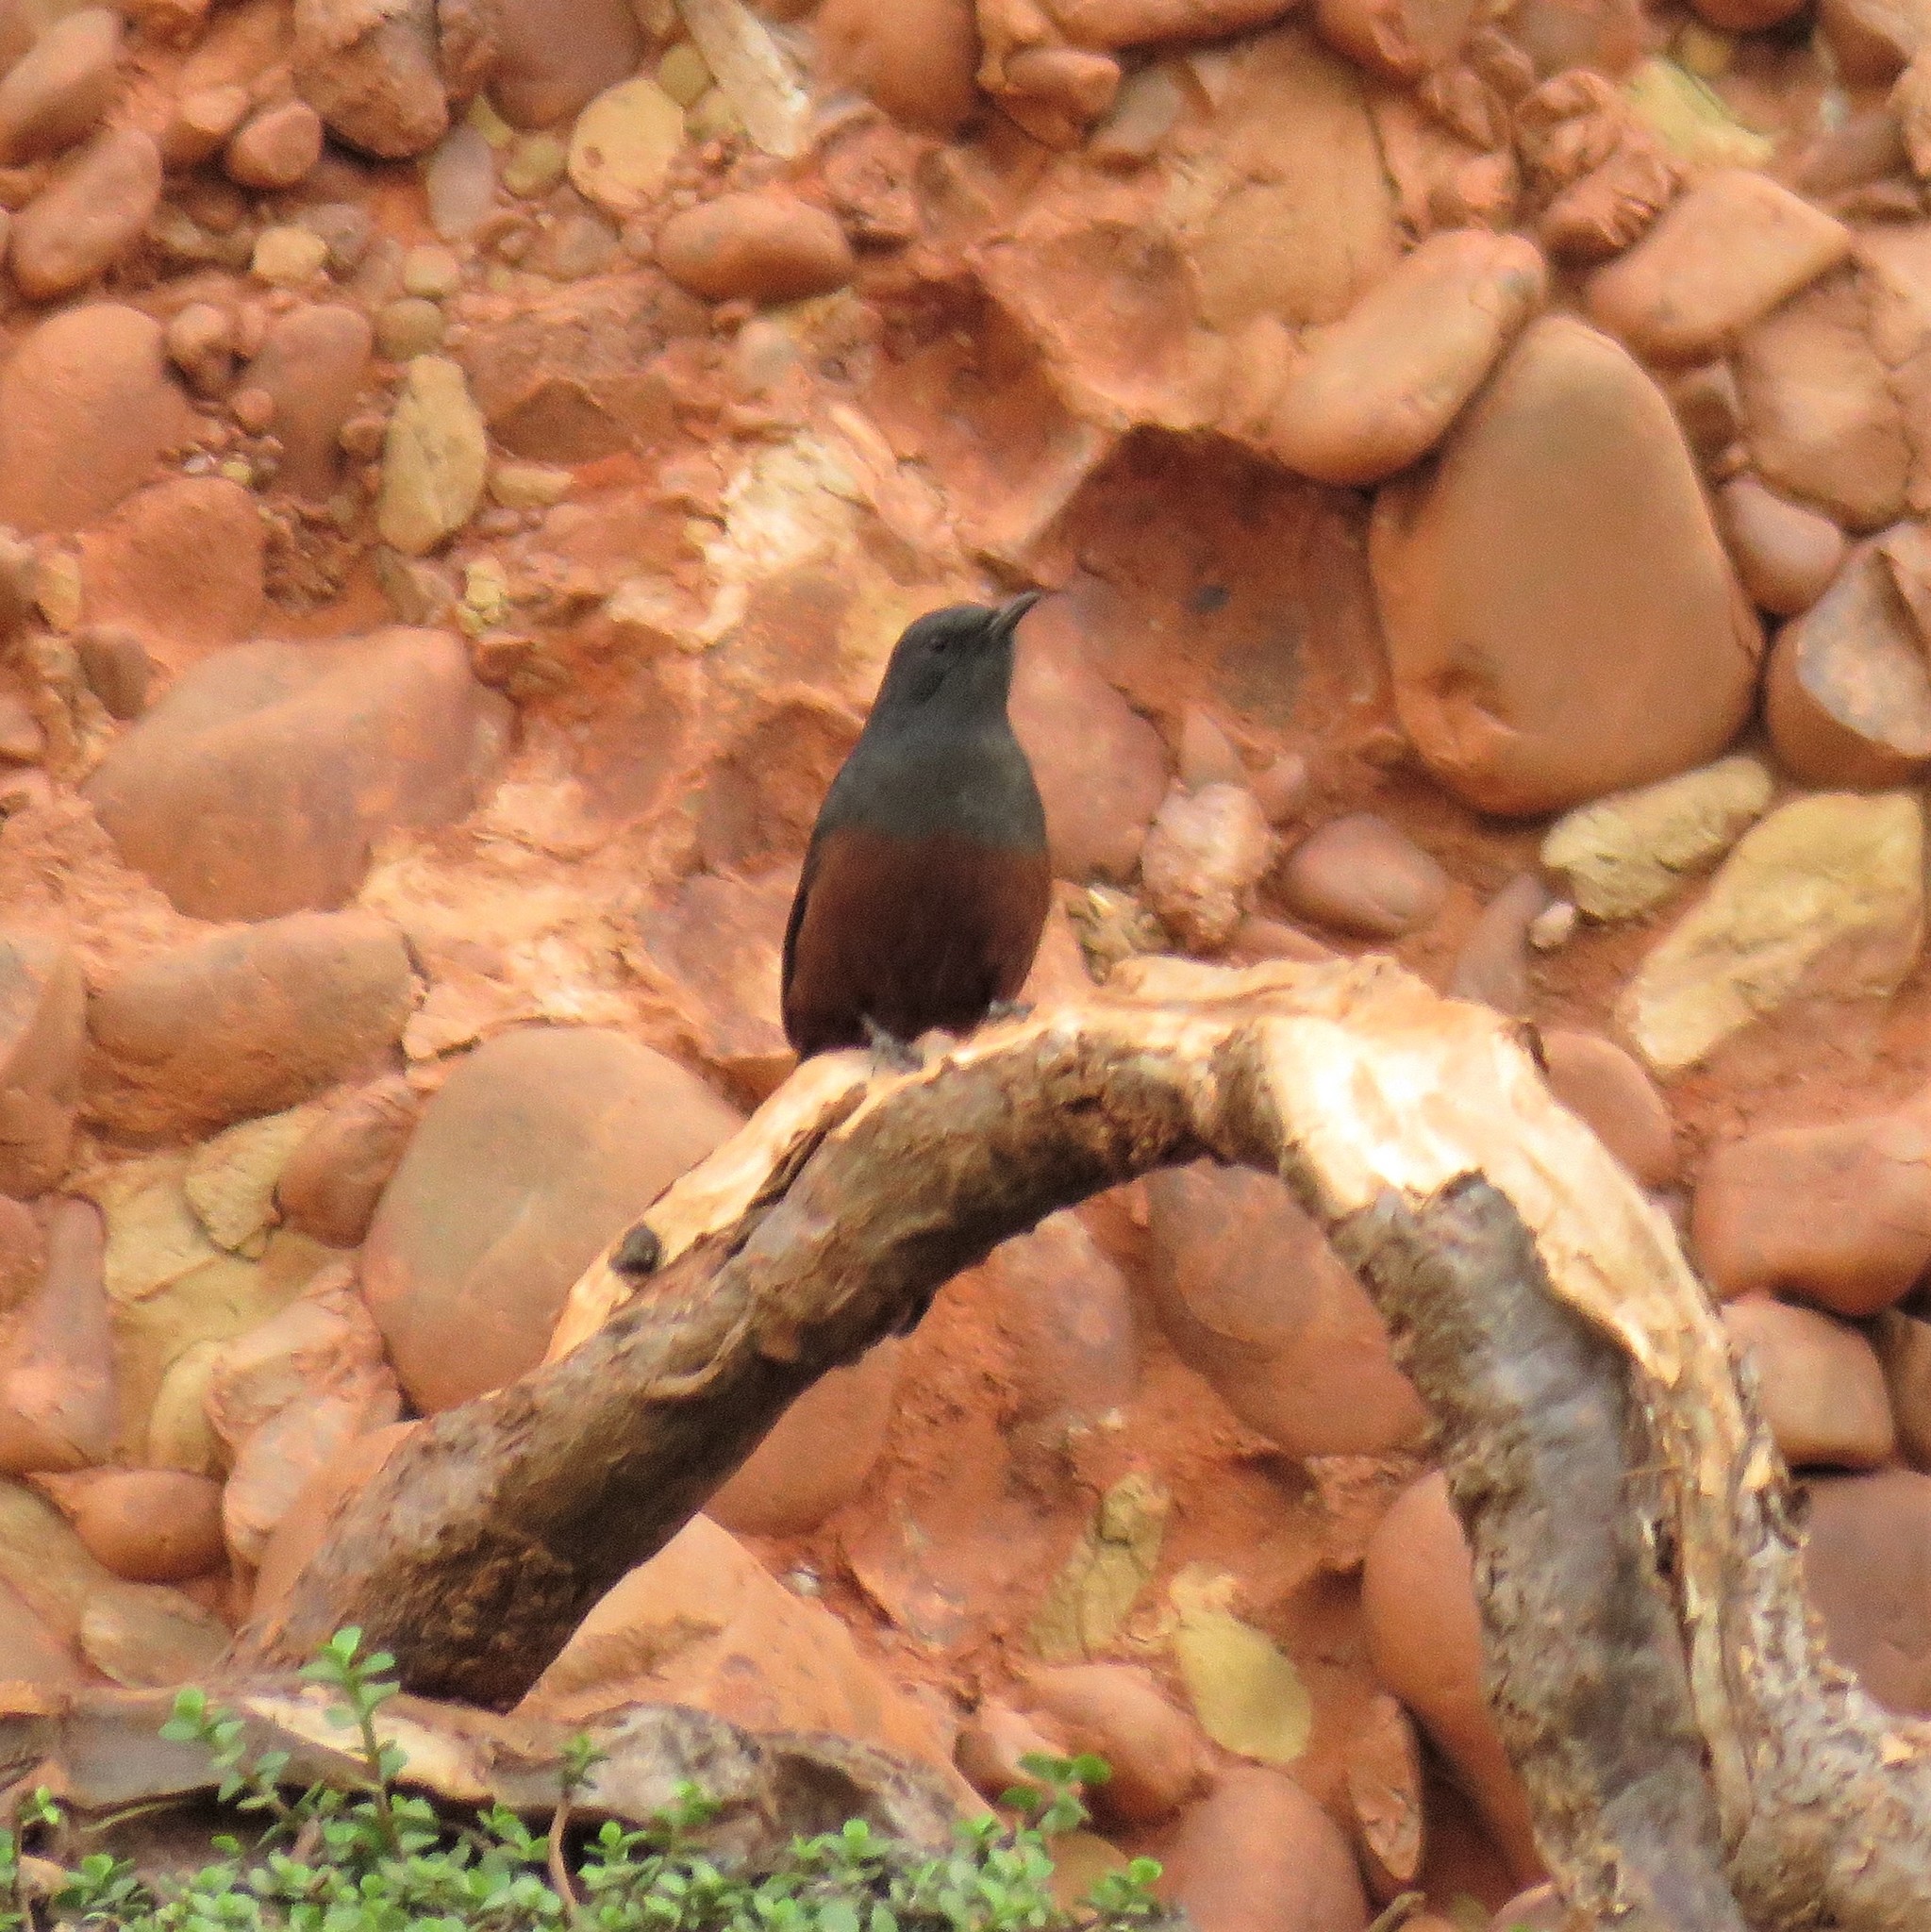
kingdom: Animalia
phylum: Chordata
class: Aves
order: Passeriformes
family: Muscicapidae
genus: Thamnolaea
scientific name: Thamnolaea cinnamomeiventris
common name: Mocking cliff chat
